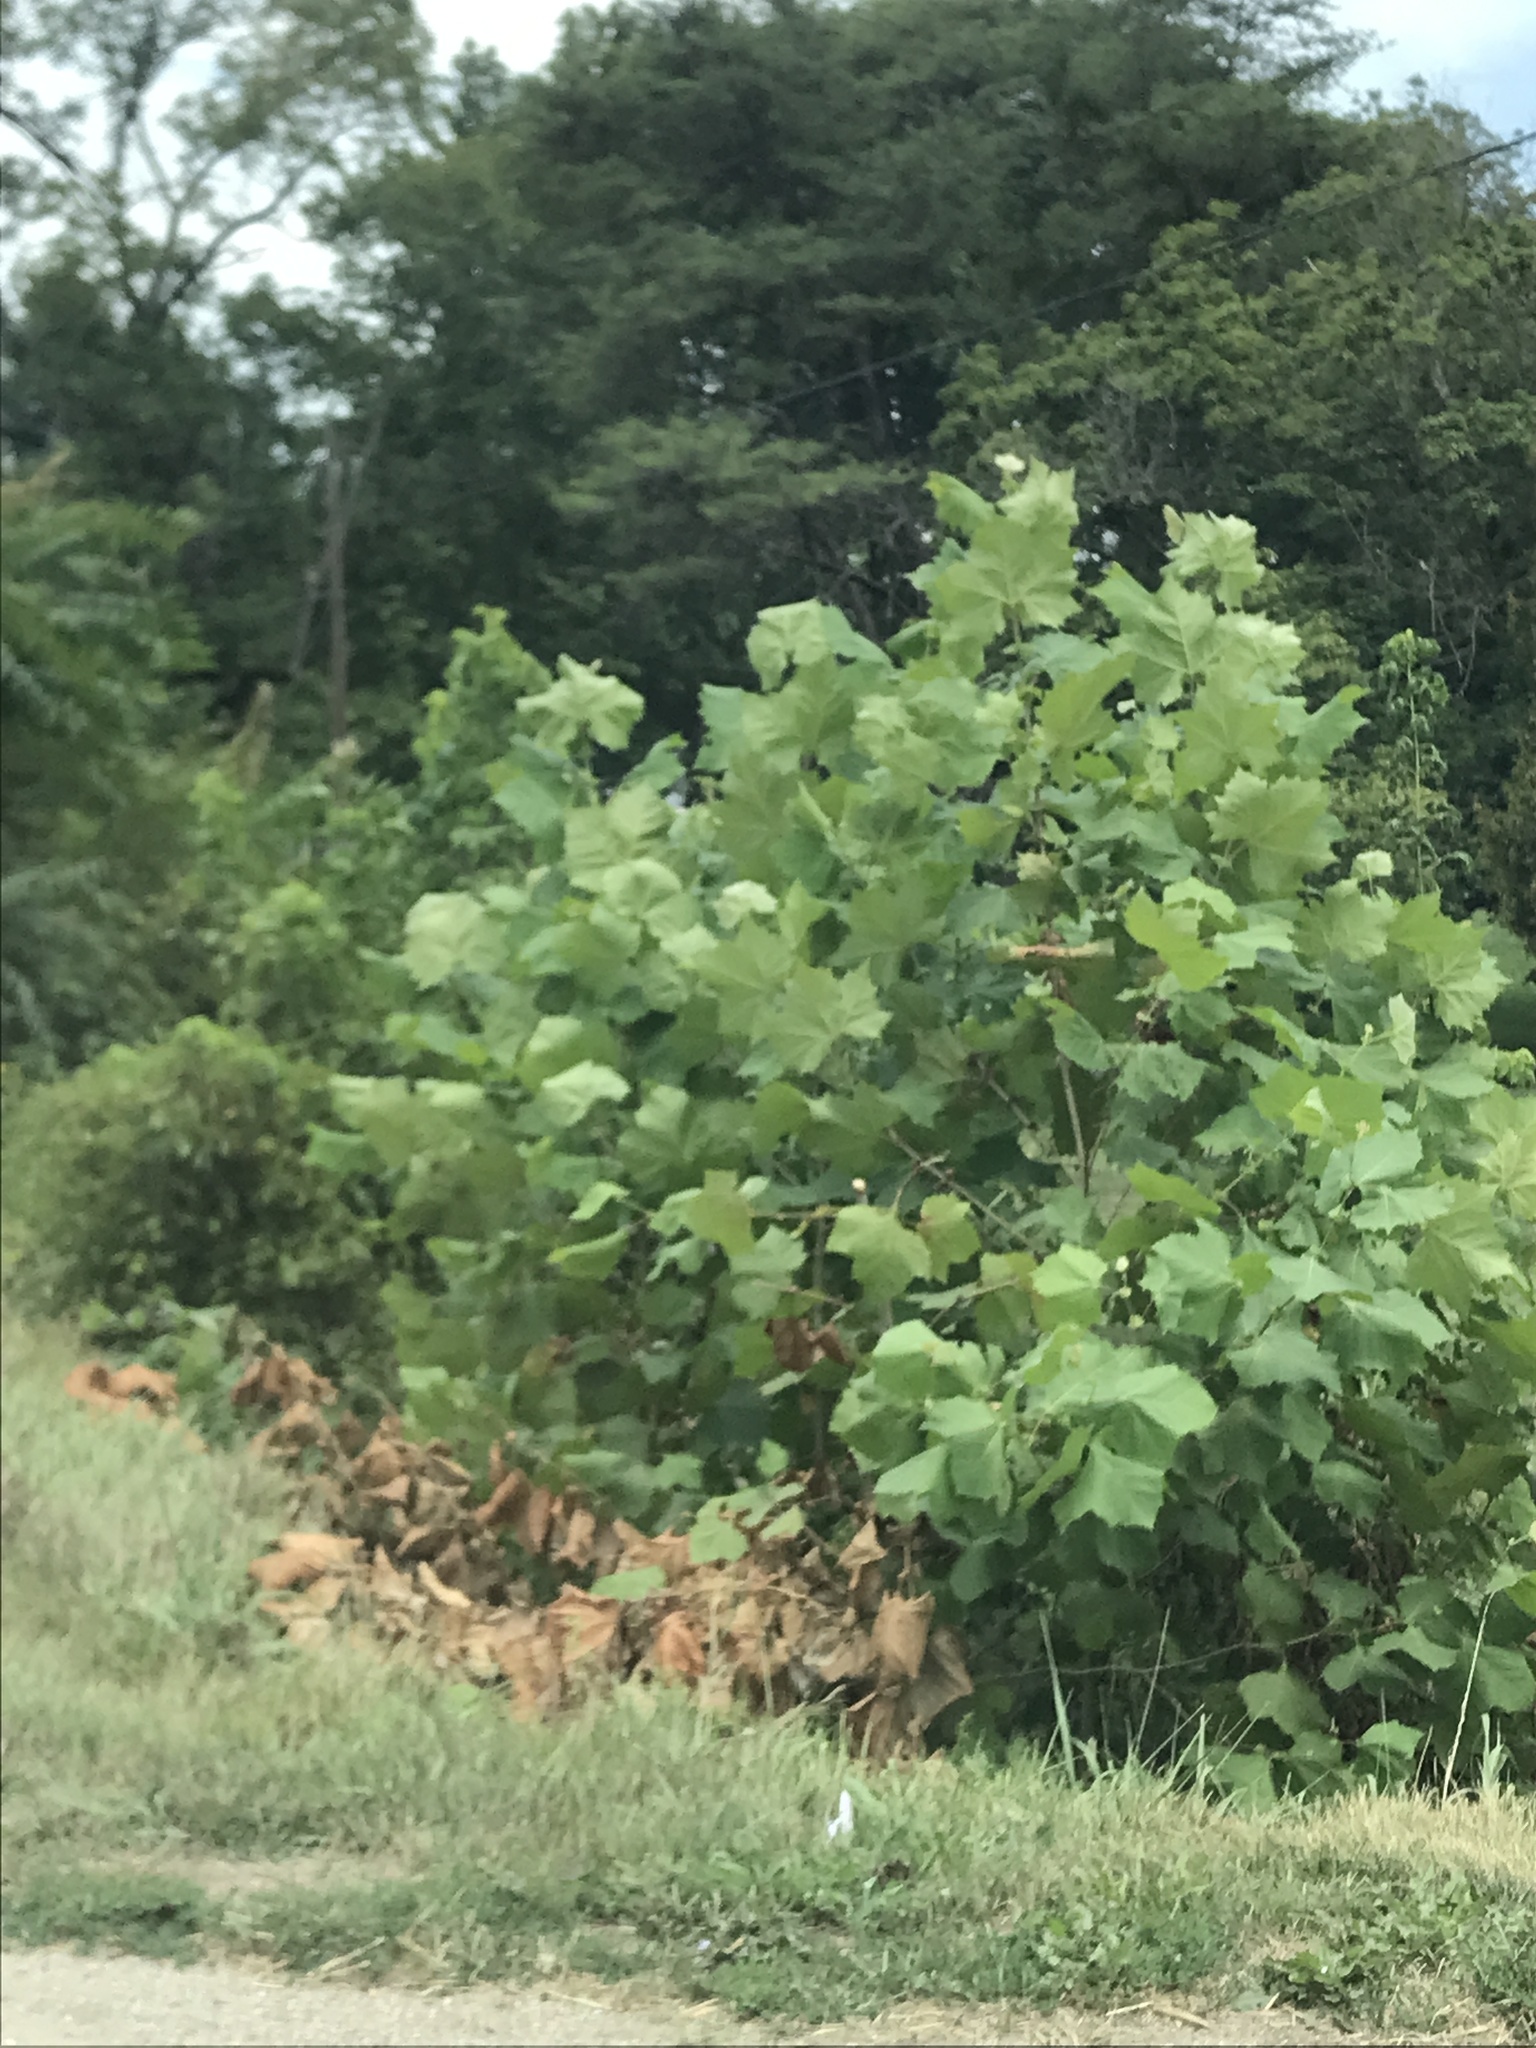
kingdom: Plantae
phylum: Tracheophyta
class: Magnoliopsida
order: Proteales
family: Platanaceae
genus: Platanus
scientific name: Platanus occidentalis
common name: American sycamore
